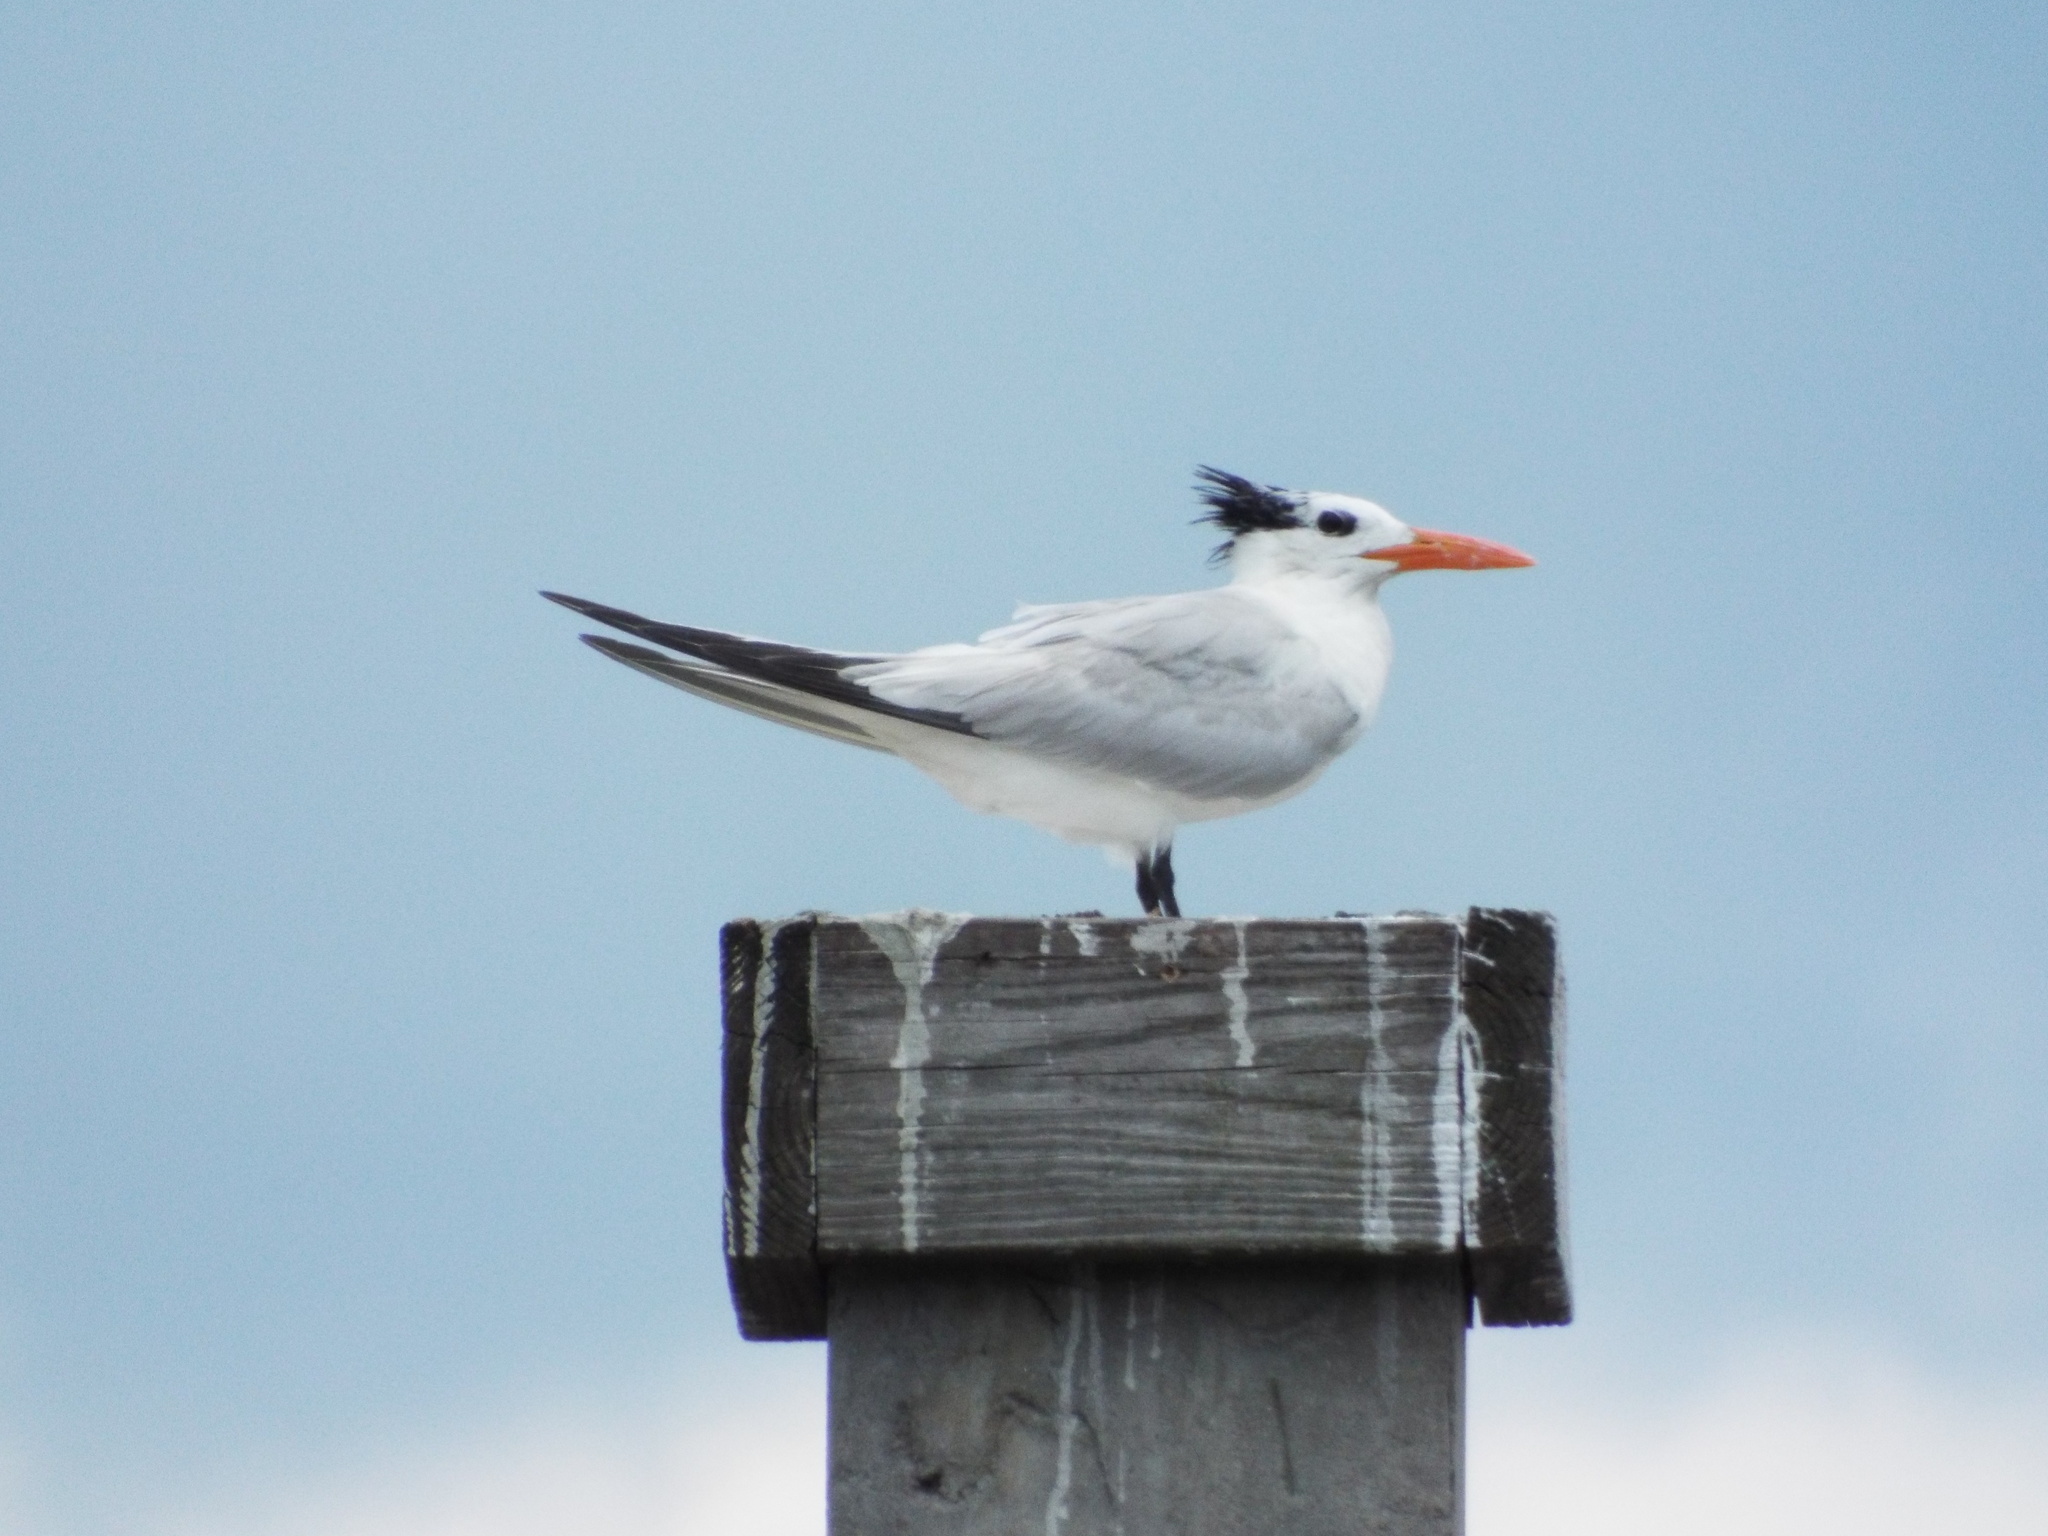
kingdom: Animalia
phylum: Chordata
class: Aves
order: Charadriiformes
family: Laridae
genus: Thalasseus
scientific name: Thalasseus maximus
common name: Royal tern
